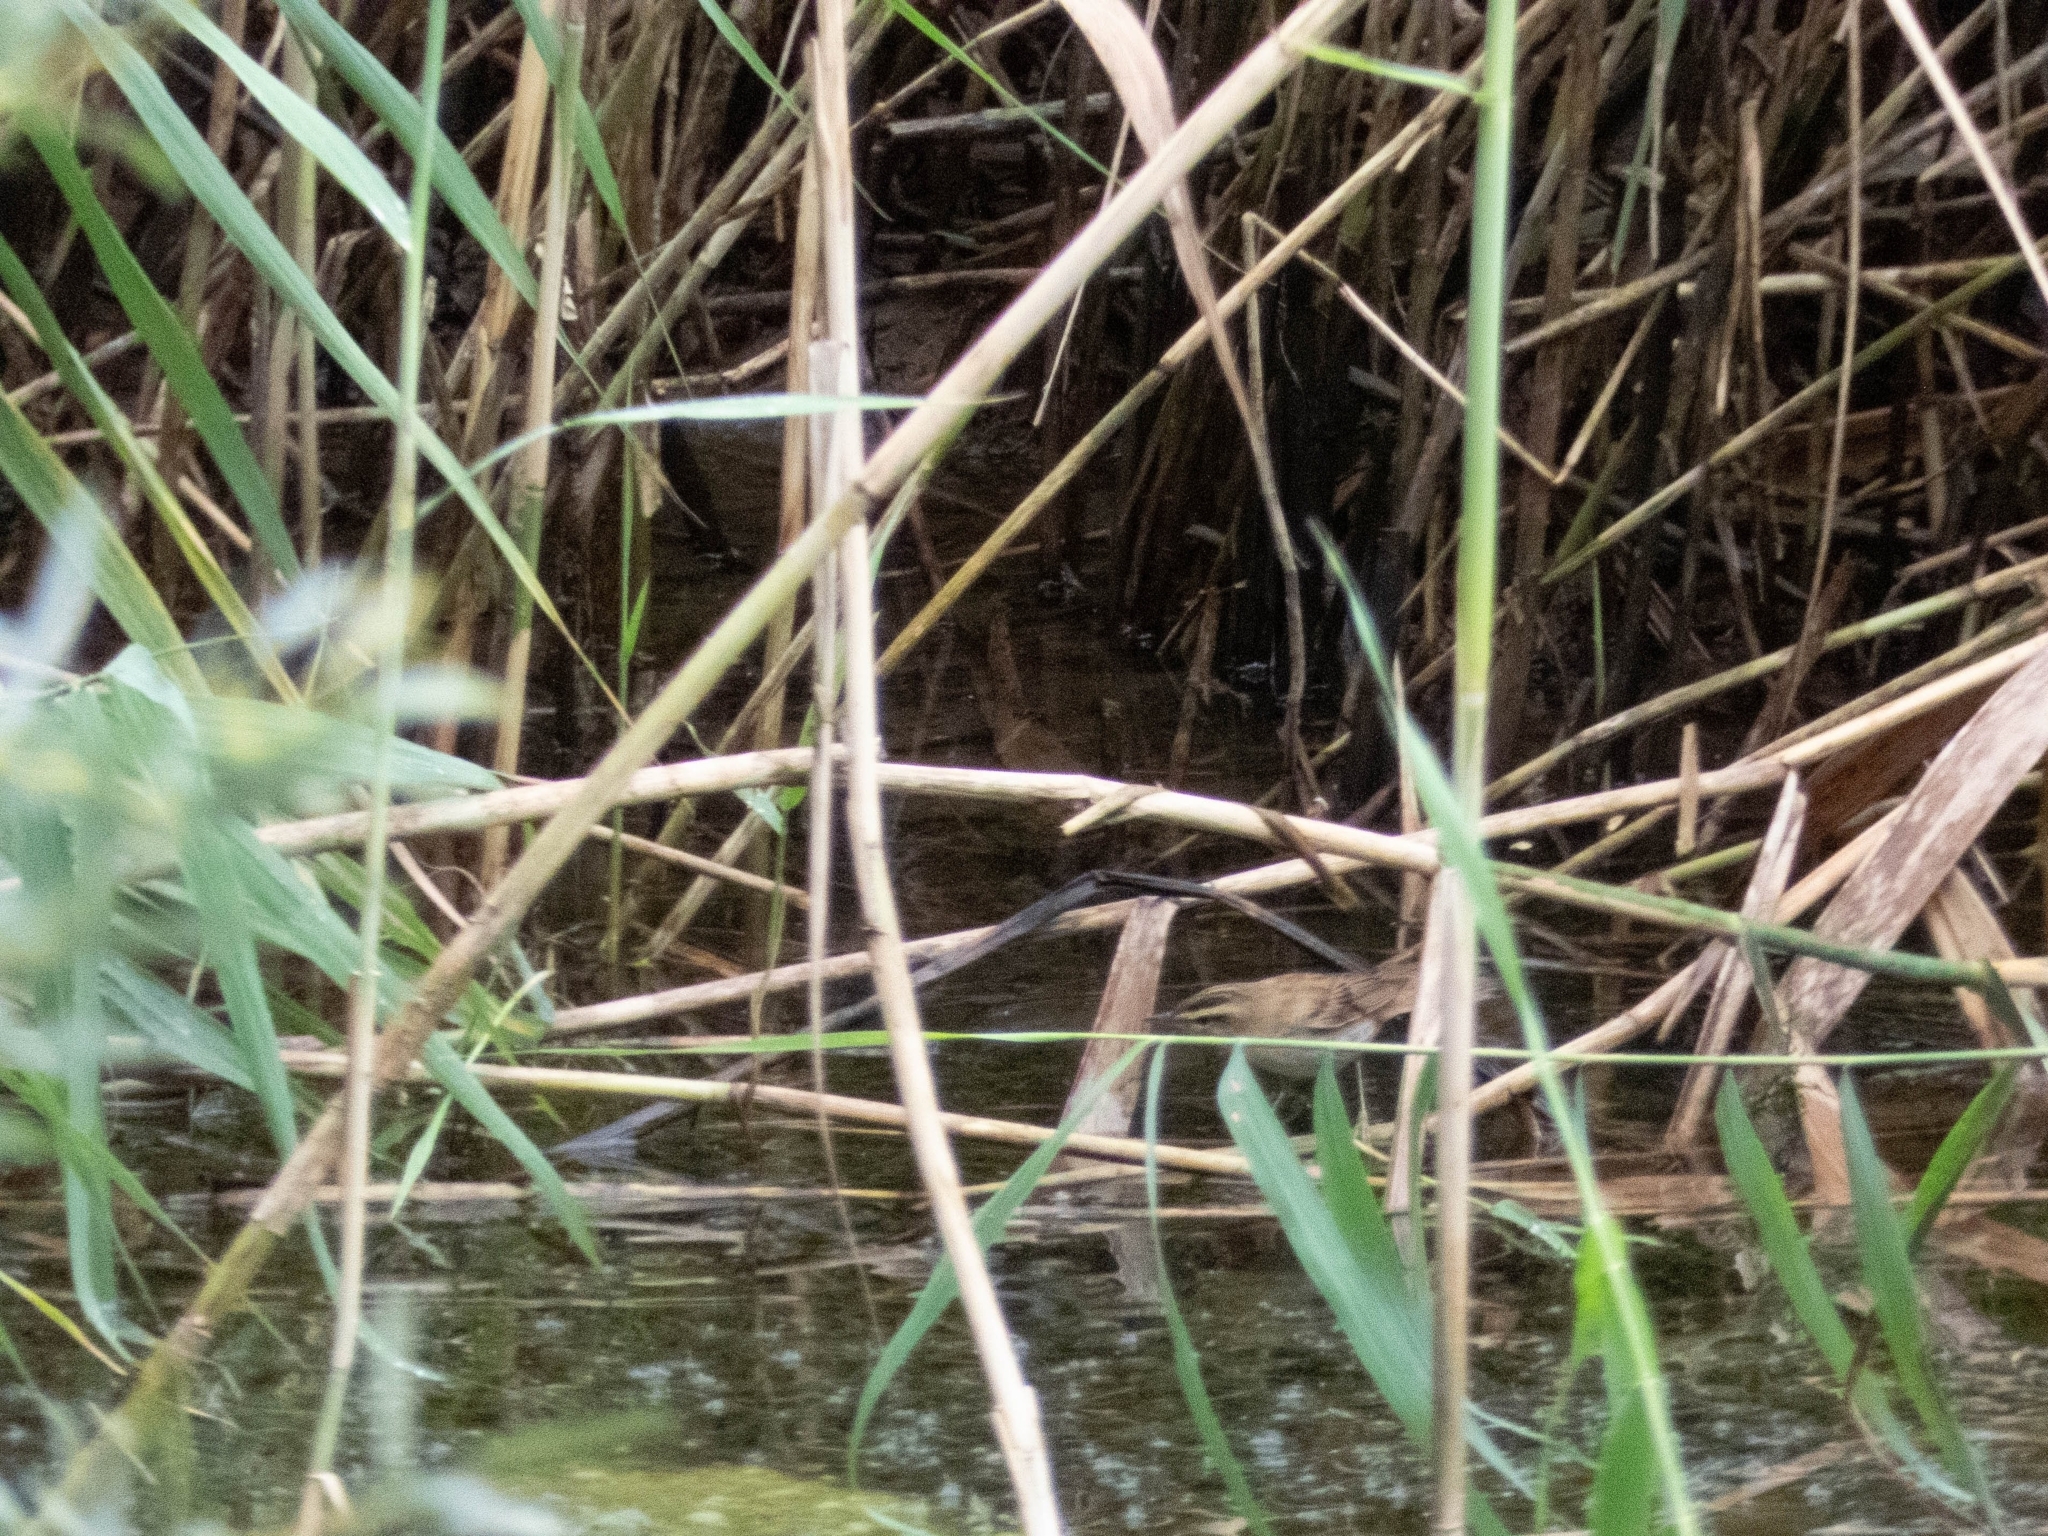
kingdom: Animalia
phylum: Chordata
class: Aves
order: Passeriformes
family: Acrocephalidae
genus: Acrocephalus
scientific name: Acrocephalus schoenobaenus
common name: Sedge warbler
